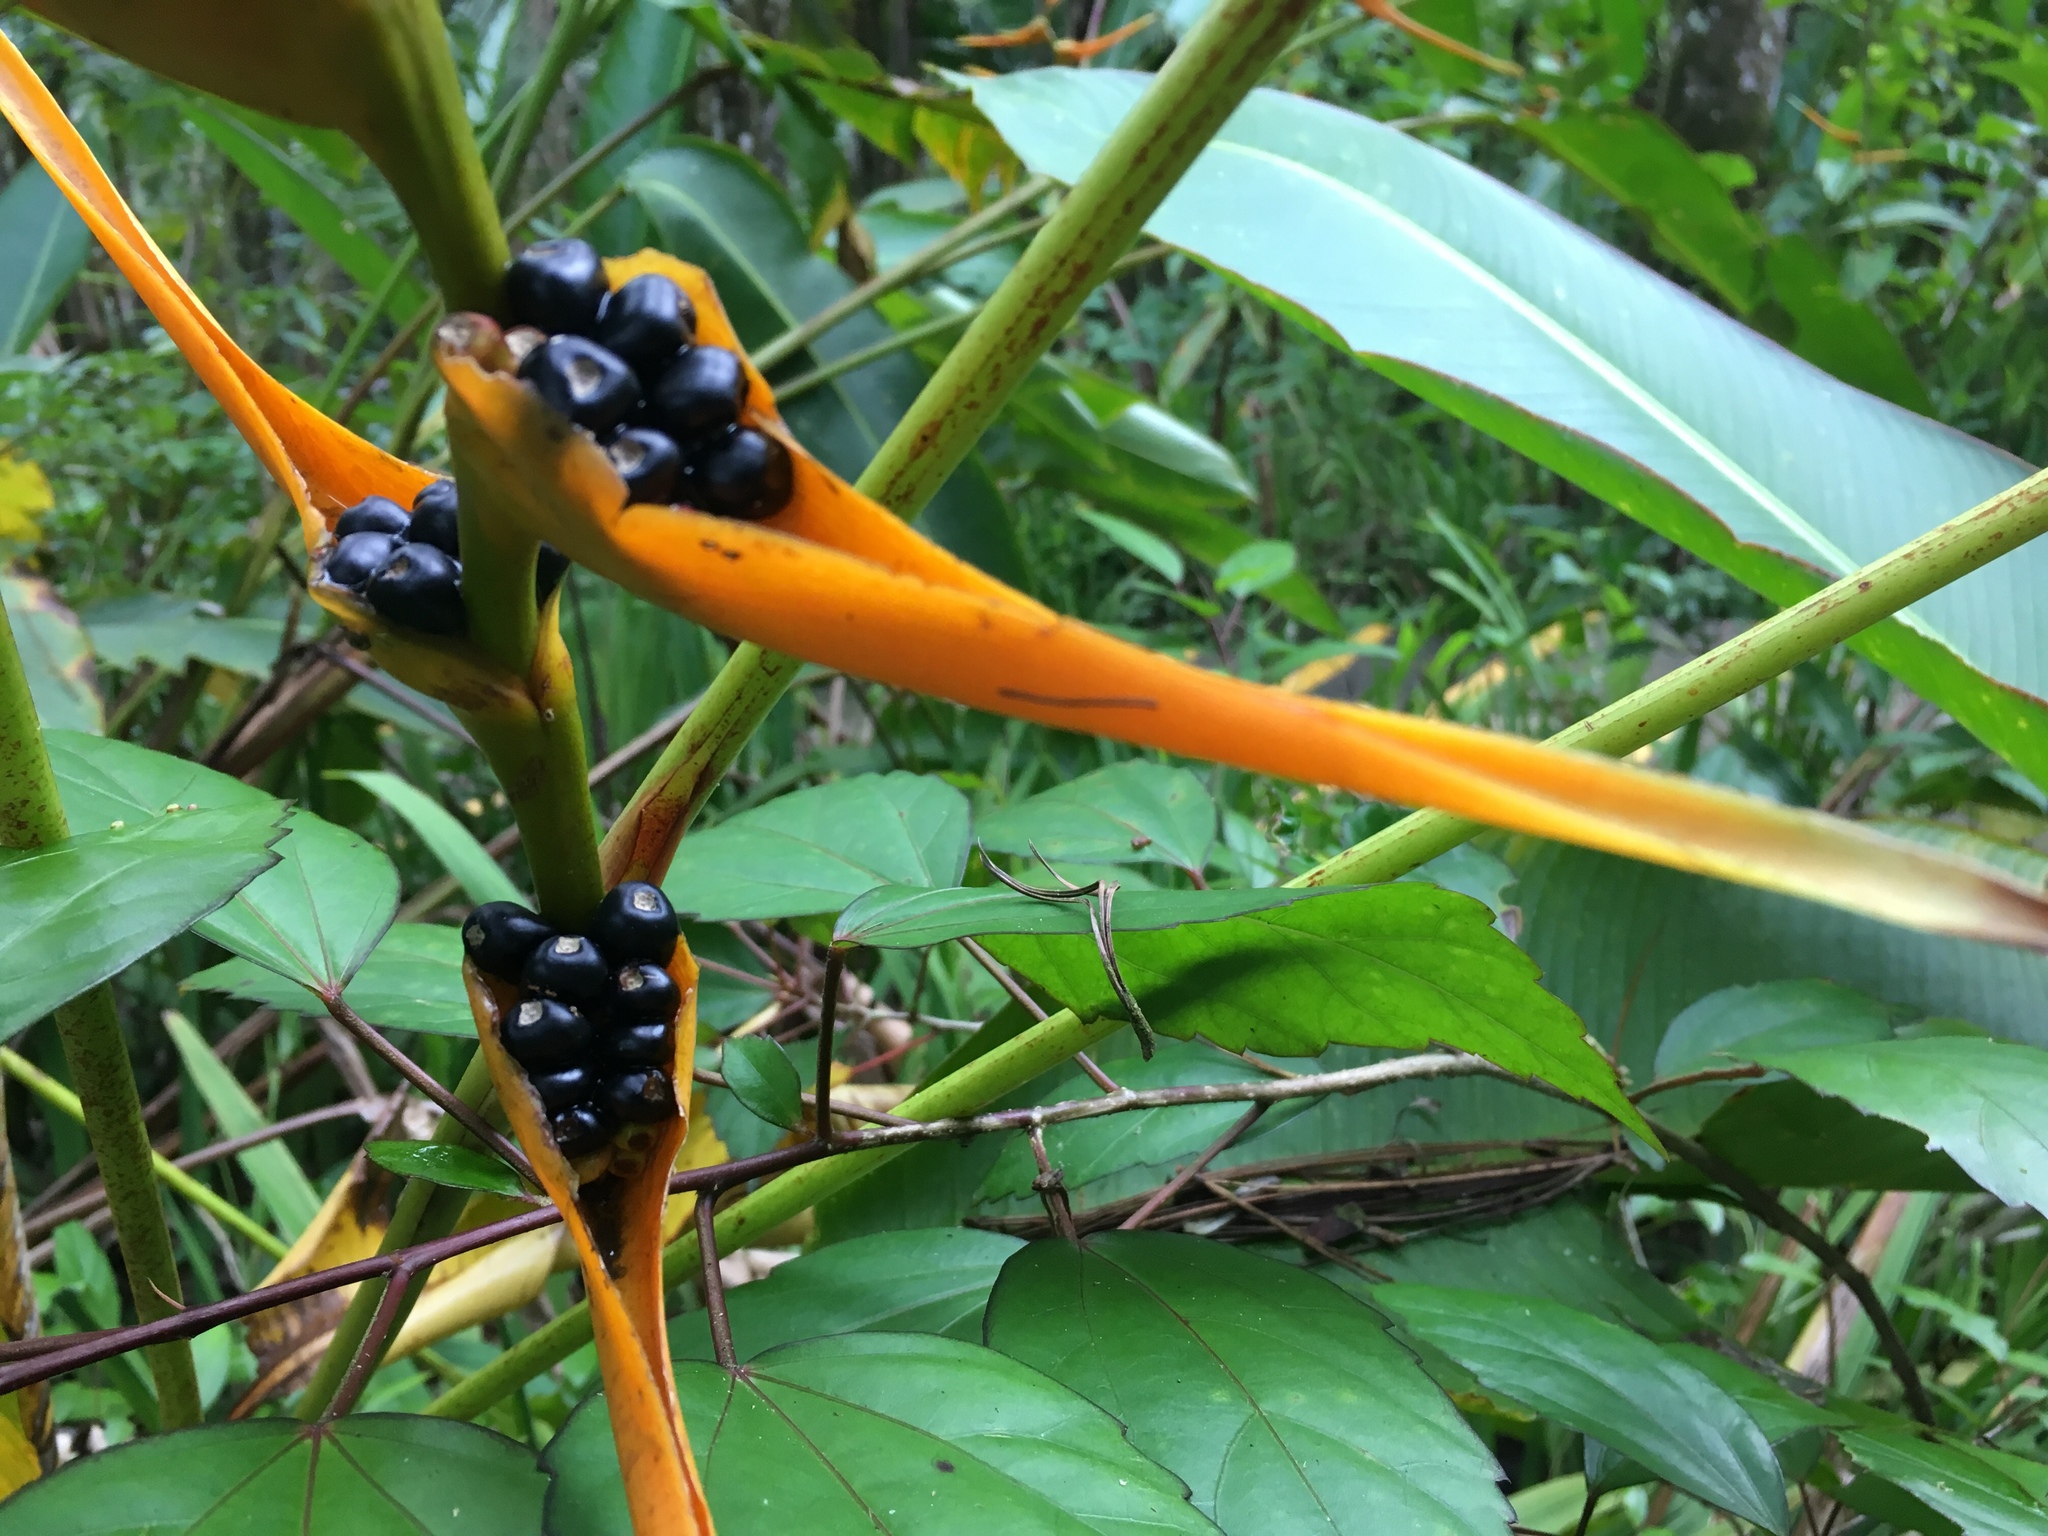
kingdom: Plantae
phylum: Tracheophyta
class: Liliopsida
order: Zingiberales
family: Heliconiaceae
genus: Heliconia
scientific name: Heliconia latispatha
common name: Expanded lobsterclaw
